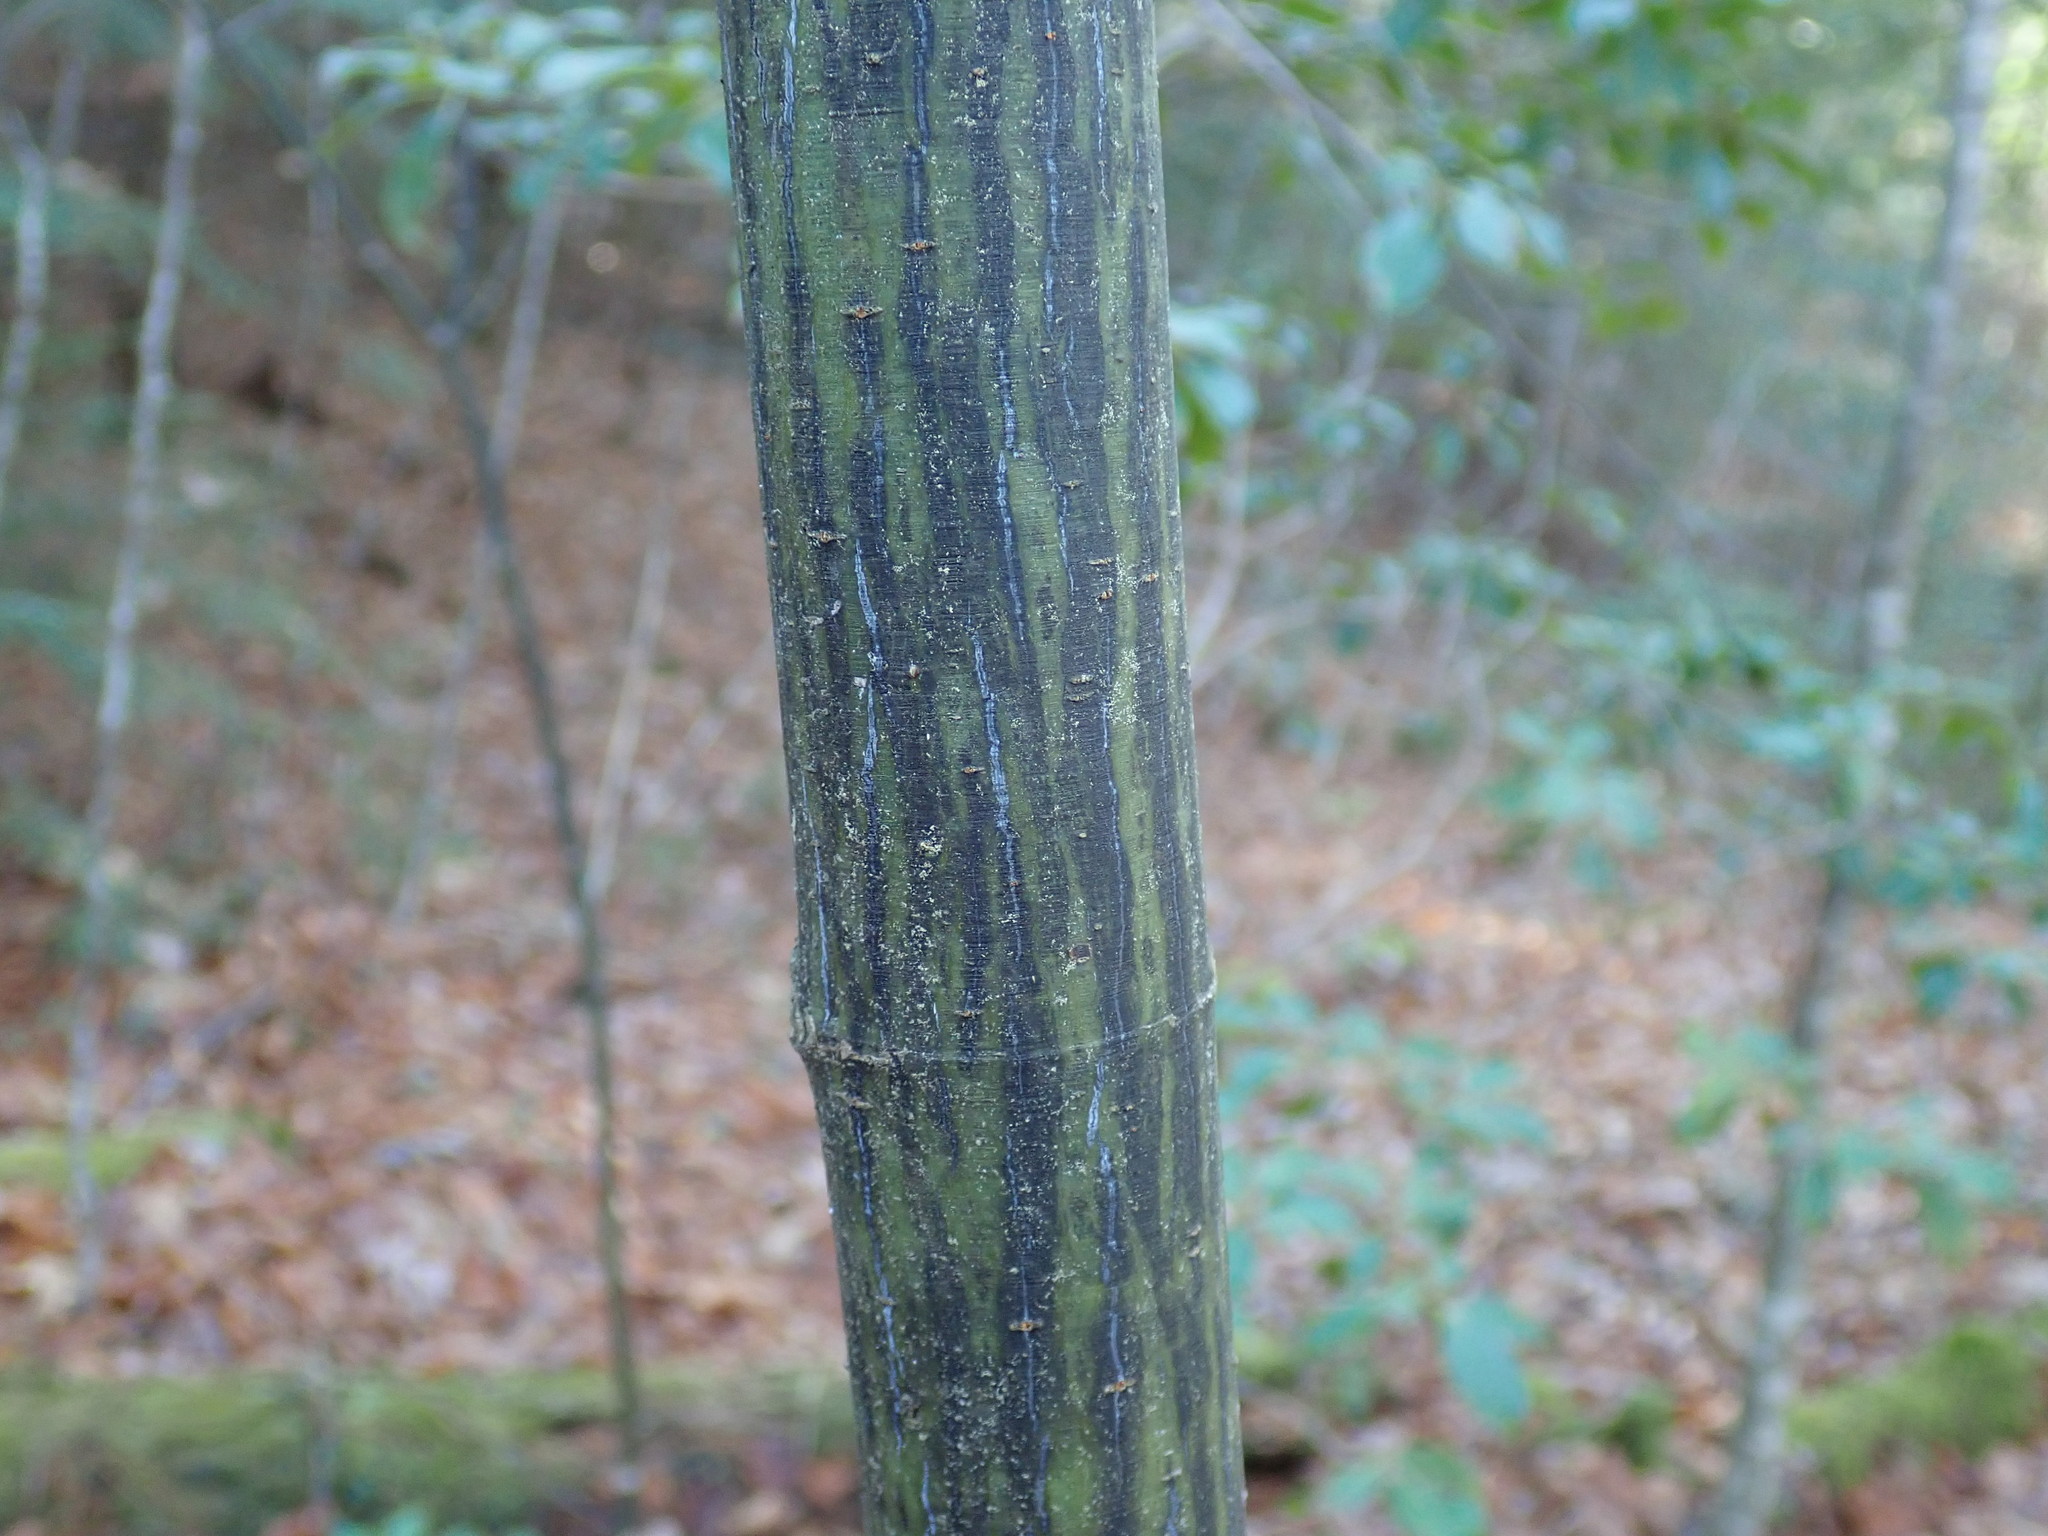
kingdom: Plantae
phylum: Tracheophyta
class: Magnoliopsida
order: Sapindales
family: Sapindaceae
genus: Acer
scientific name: Acer pensylvanicum
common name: Moosewood
